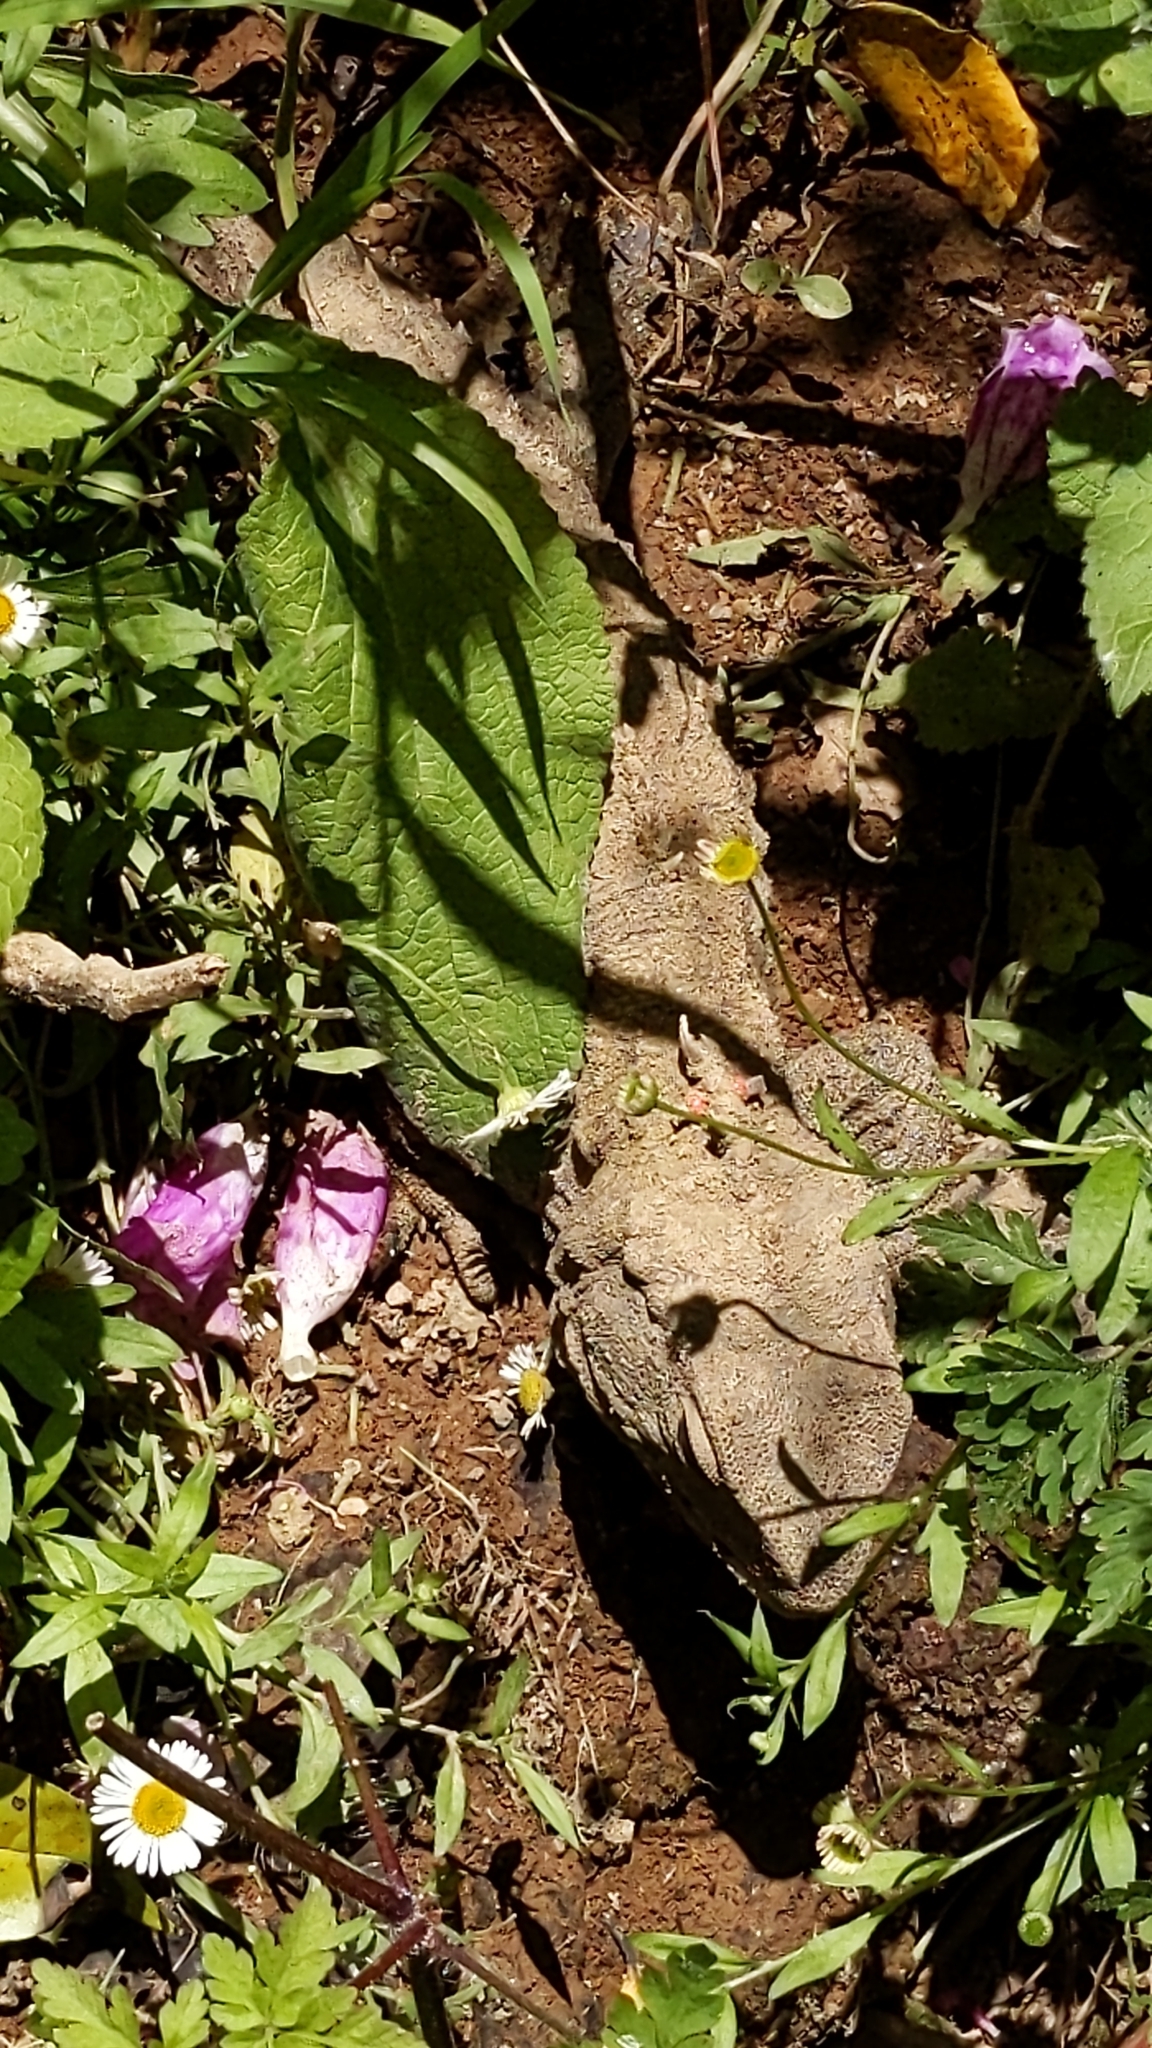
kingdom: Animalia
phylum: Chordata
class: Sphenodontia
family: Sphenodontidae
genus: Sphenodon
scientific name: Sphenodon punctatus
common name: Tuatara
